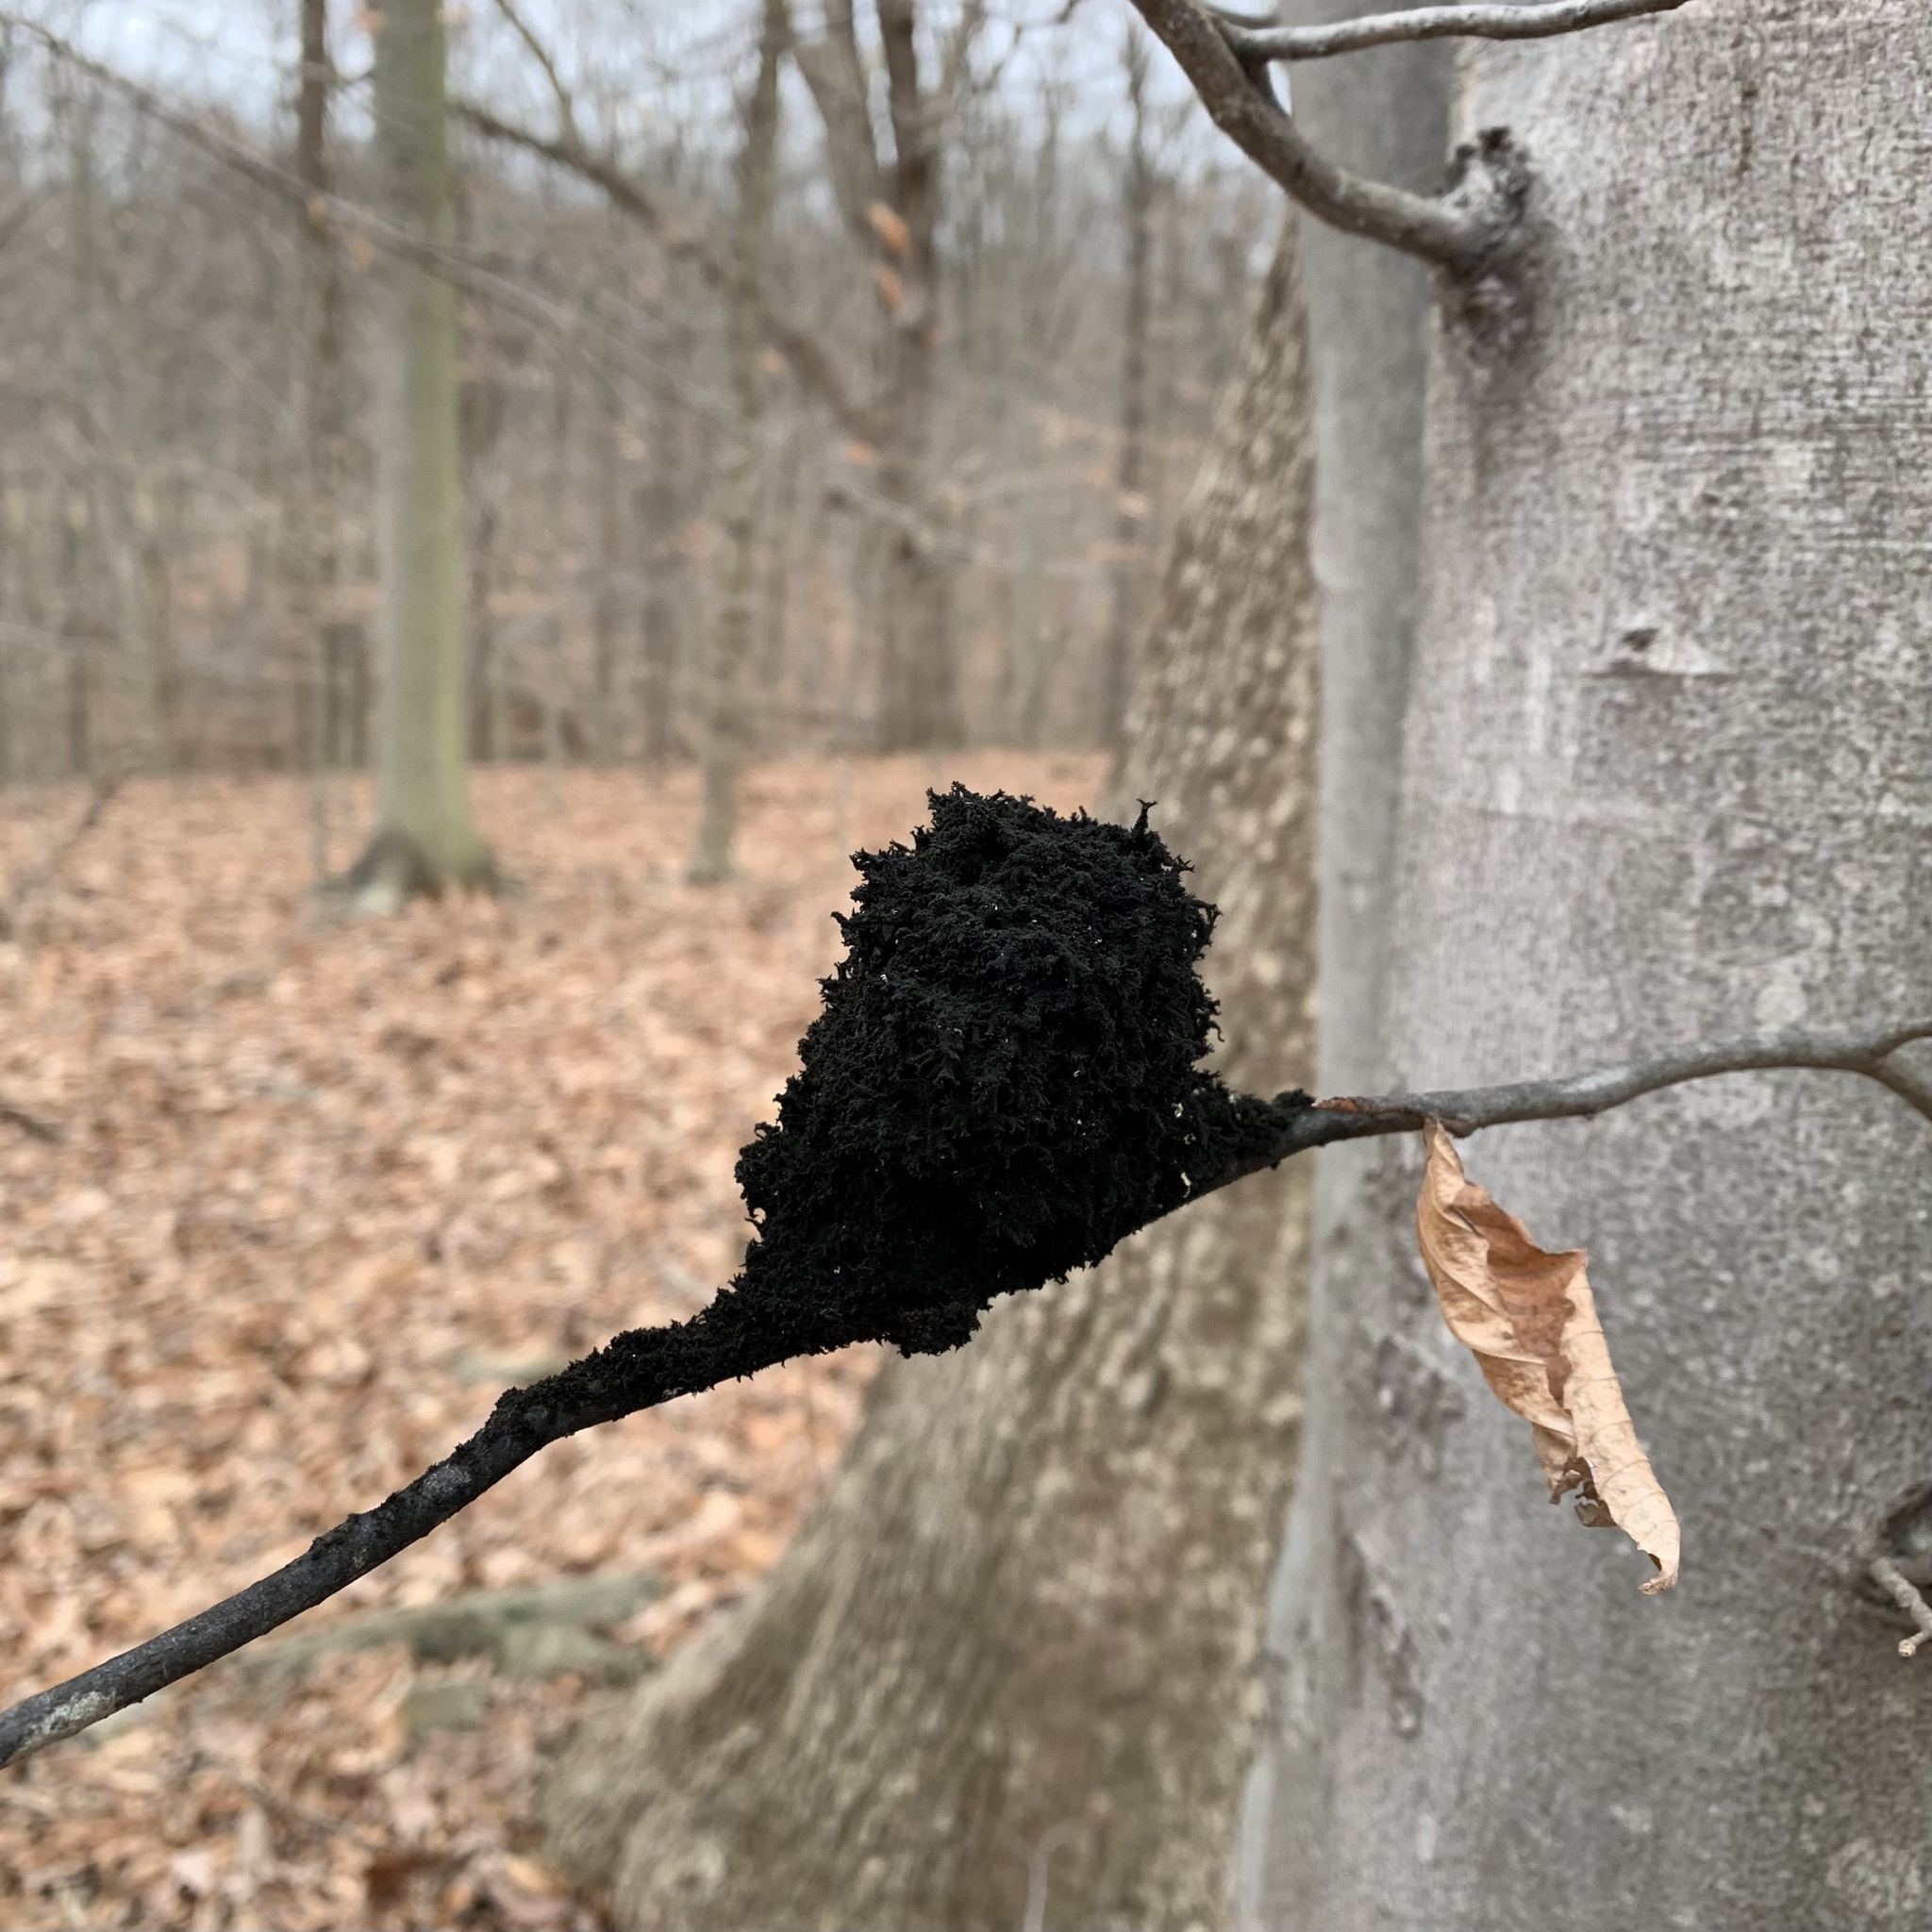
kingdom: Fungi
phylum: Ascomycota
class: Dothideomycetes
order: Capnodiales
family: Capnodiaceae
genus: Scorias
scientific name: Scorias spongiosa
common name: Black sooty mold
